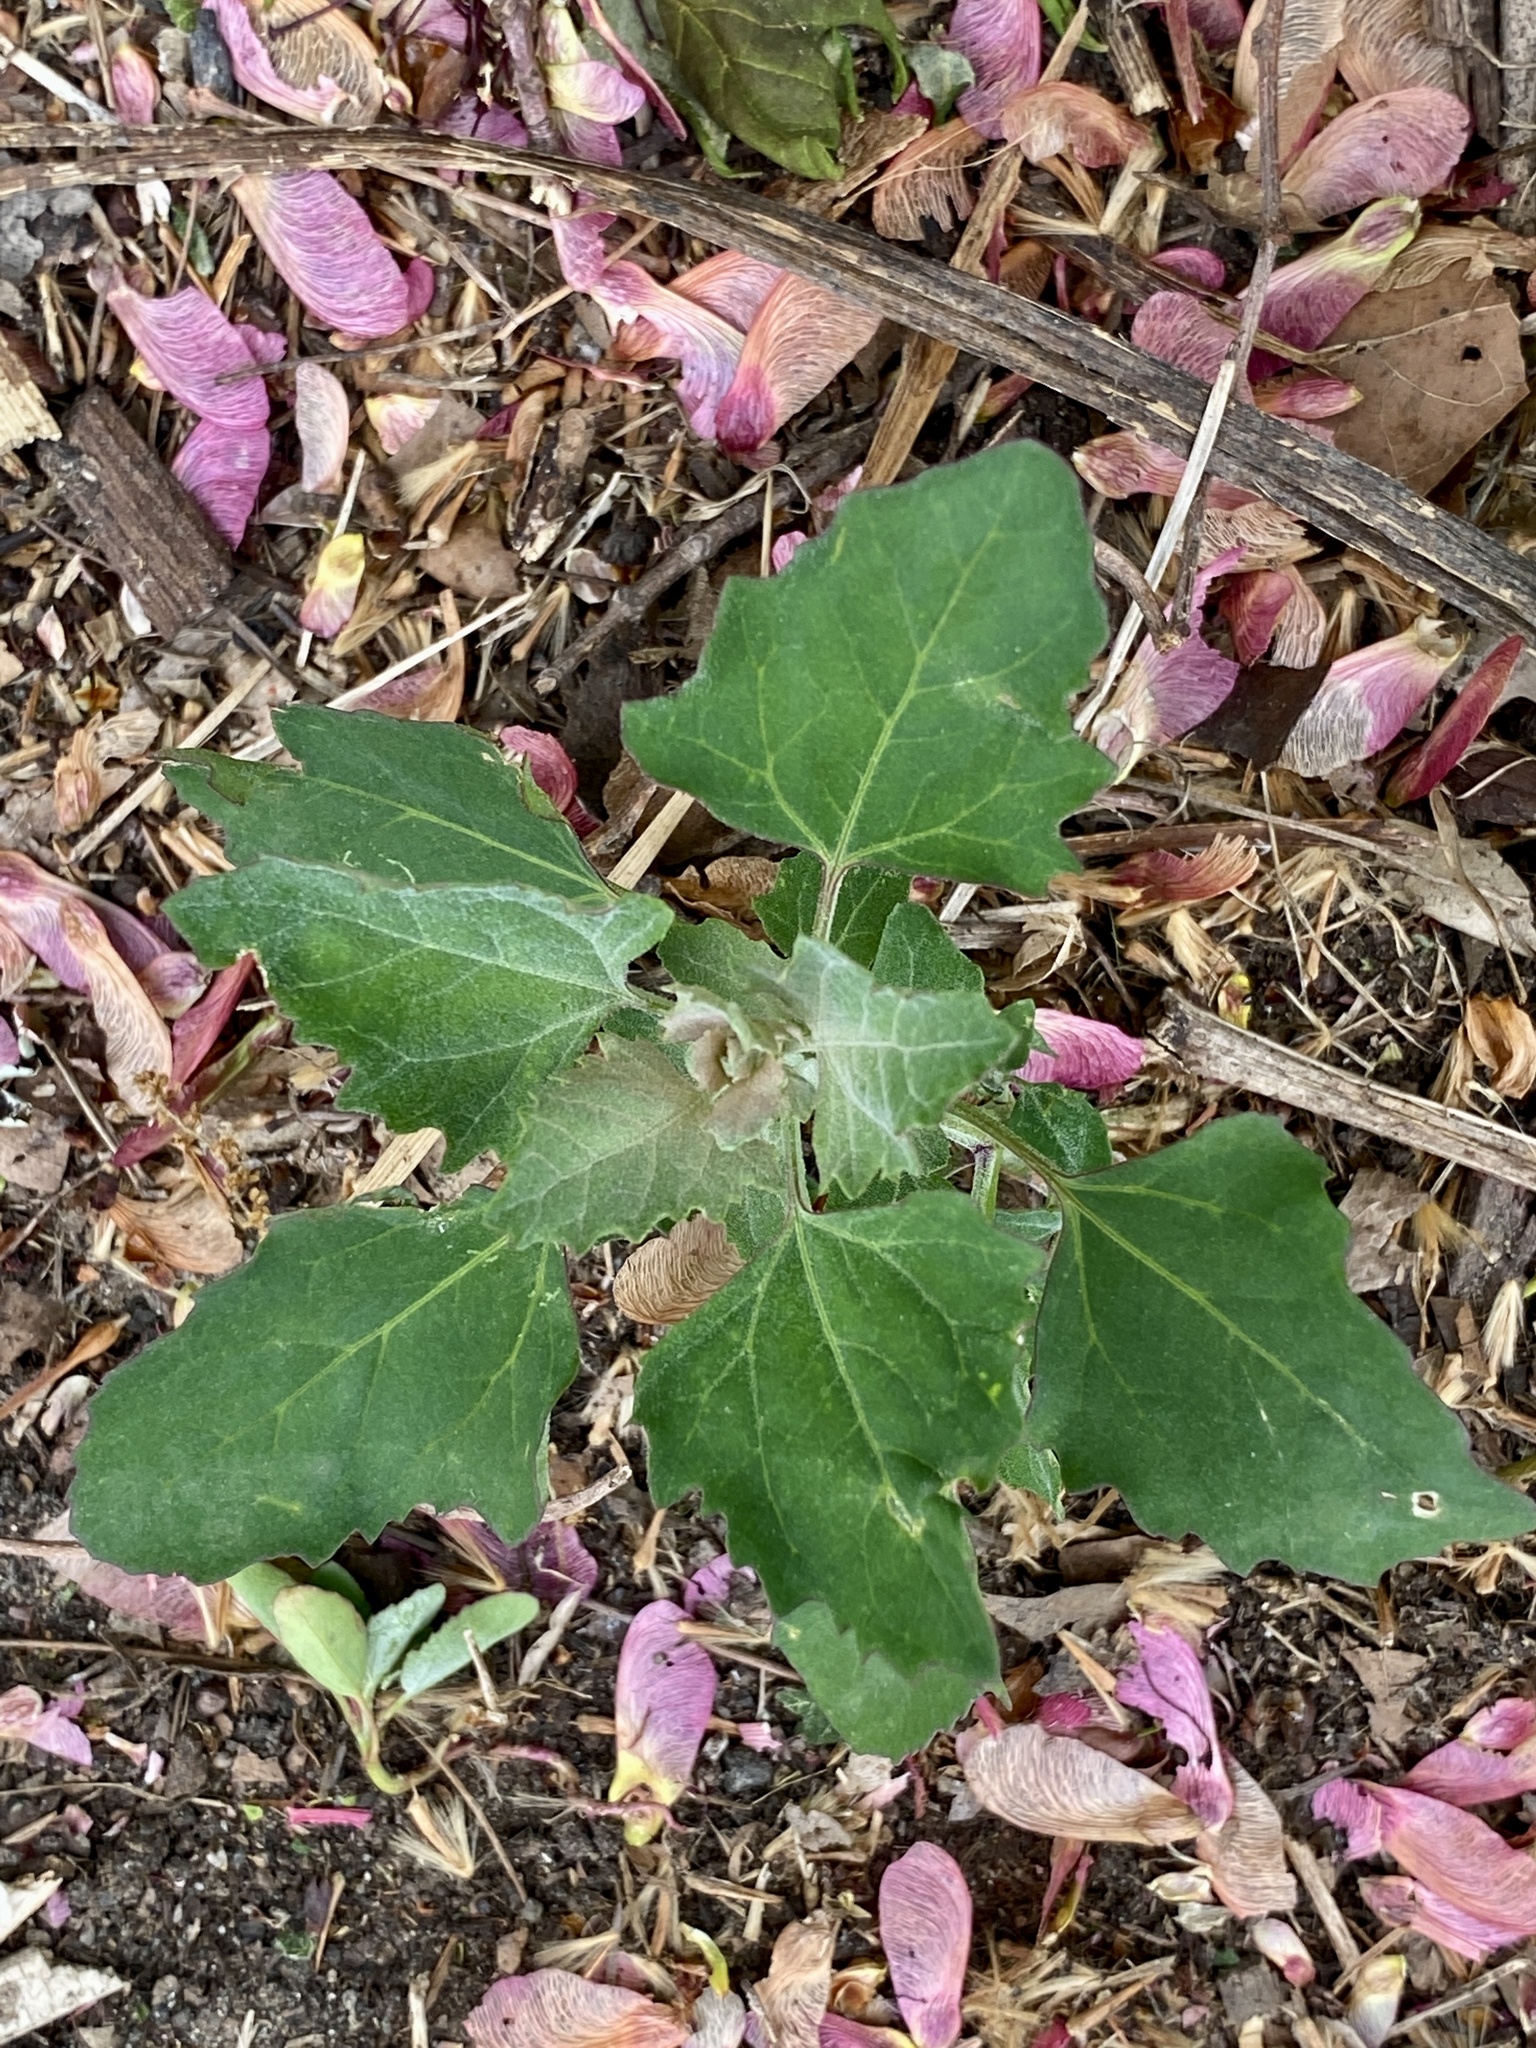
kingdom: Plantae
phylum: Tracheophyta
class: Magnoliopsida
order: Caryophyllales
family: Amaranthaceae
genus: Chenopodium
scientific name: Chenopodium album
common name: Fat-hen
